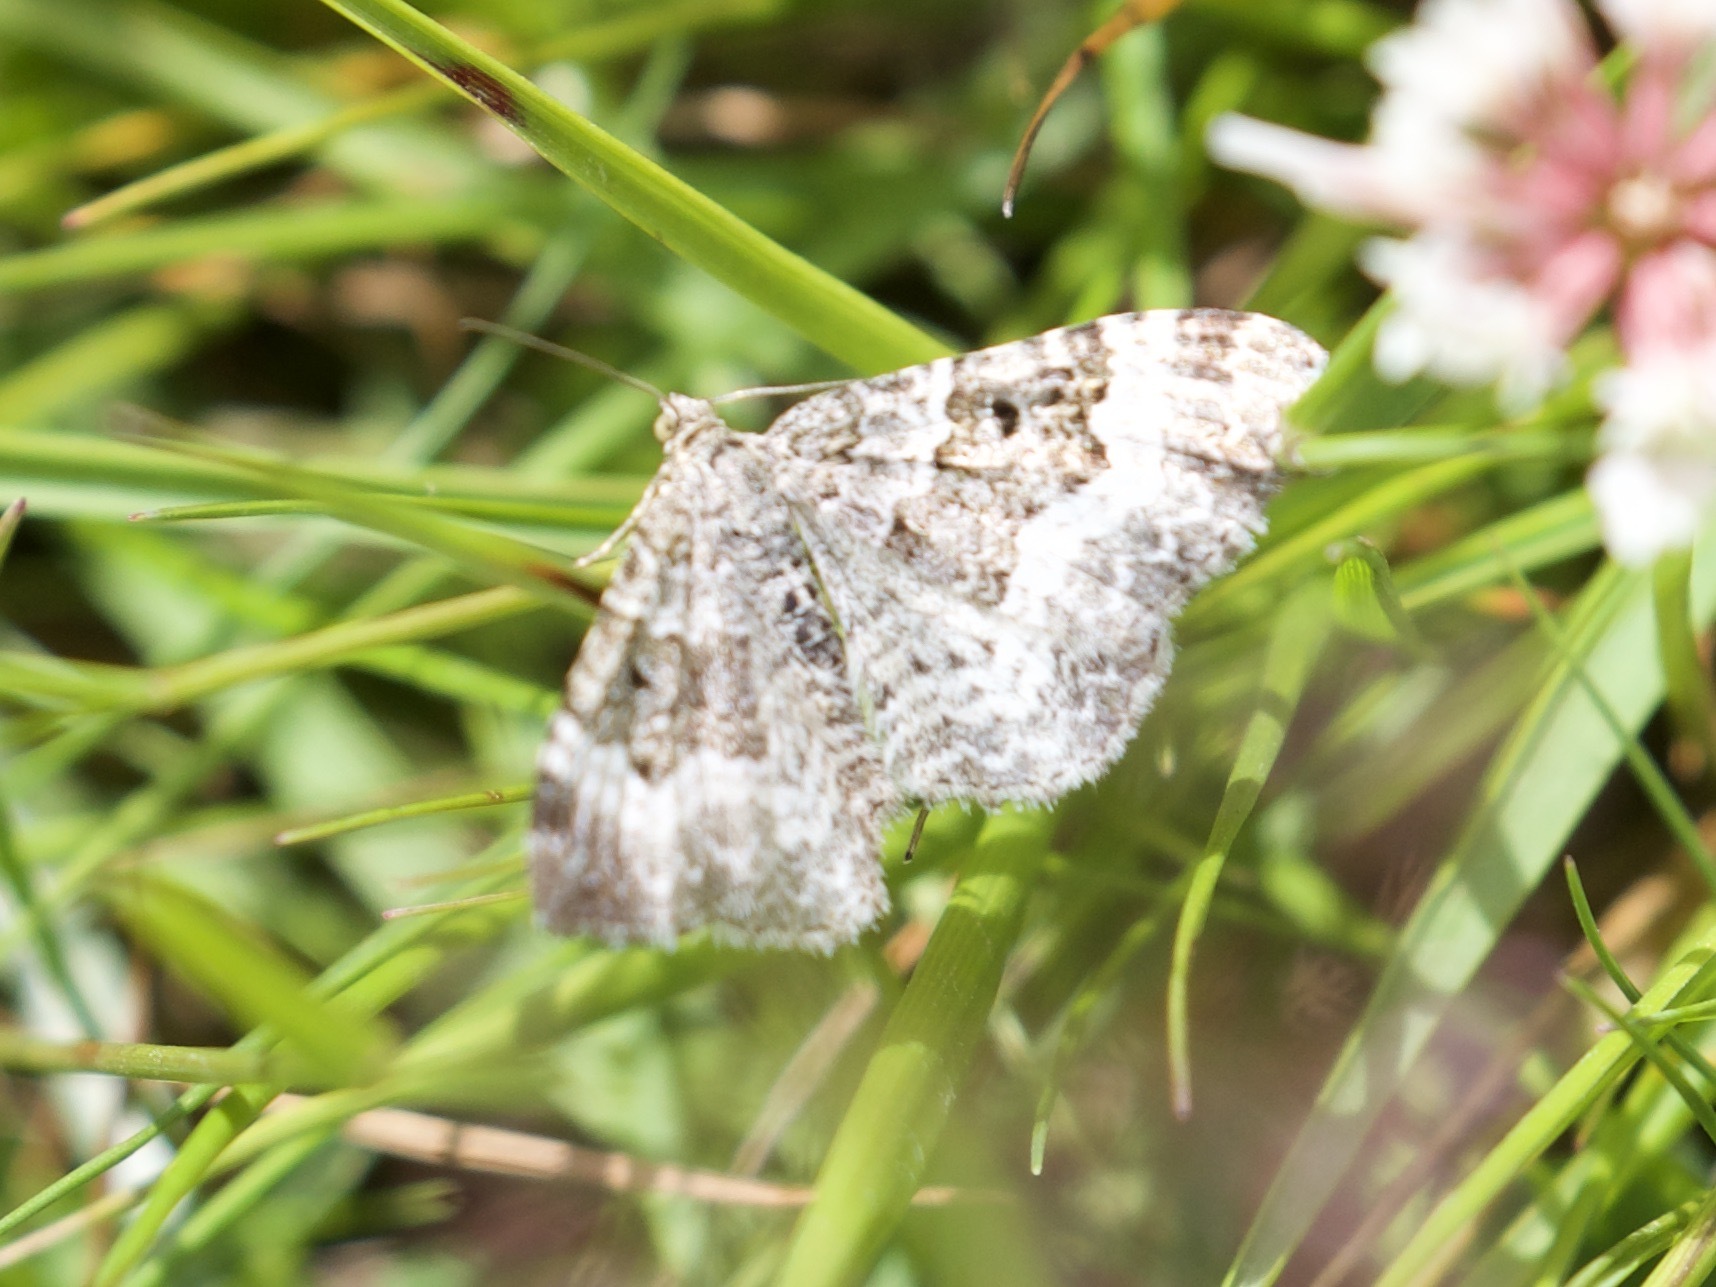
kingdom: Animalia
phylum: Arthropoda
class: Insecta
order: Lepidoptera
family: Geometridae
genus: Epirrhoe
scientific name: Epirrhoe alternata
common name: Common carpet
